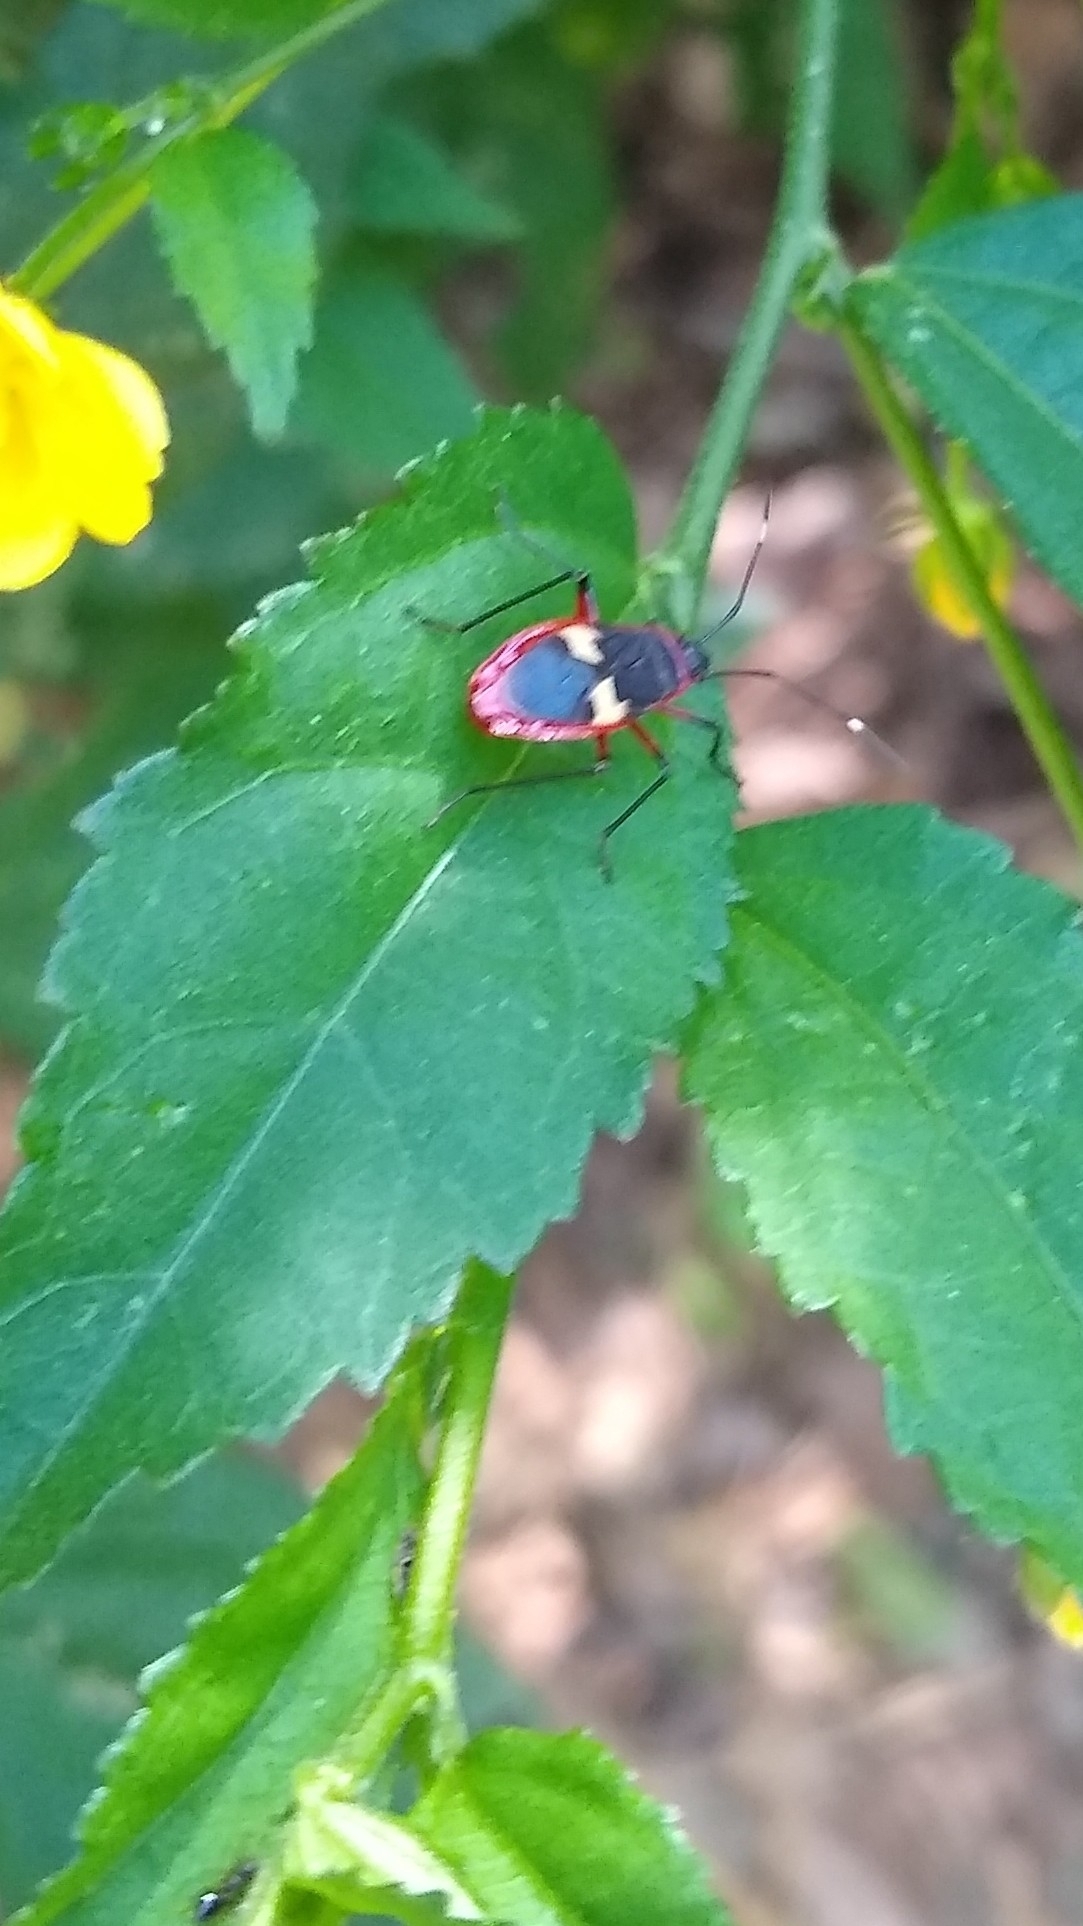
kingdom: Animalia
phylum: Arthropoda
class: Insecta
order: Hemiptera
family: Pyrrhocoridae
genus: Dysdercus
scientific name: Dysdercus albofasciatus
